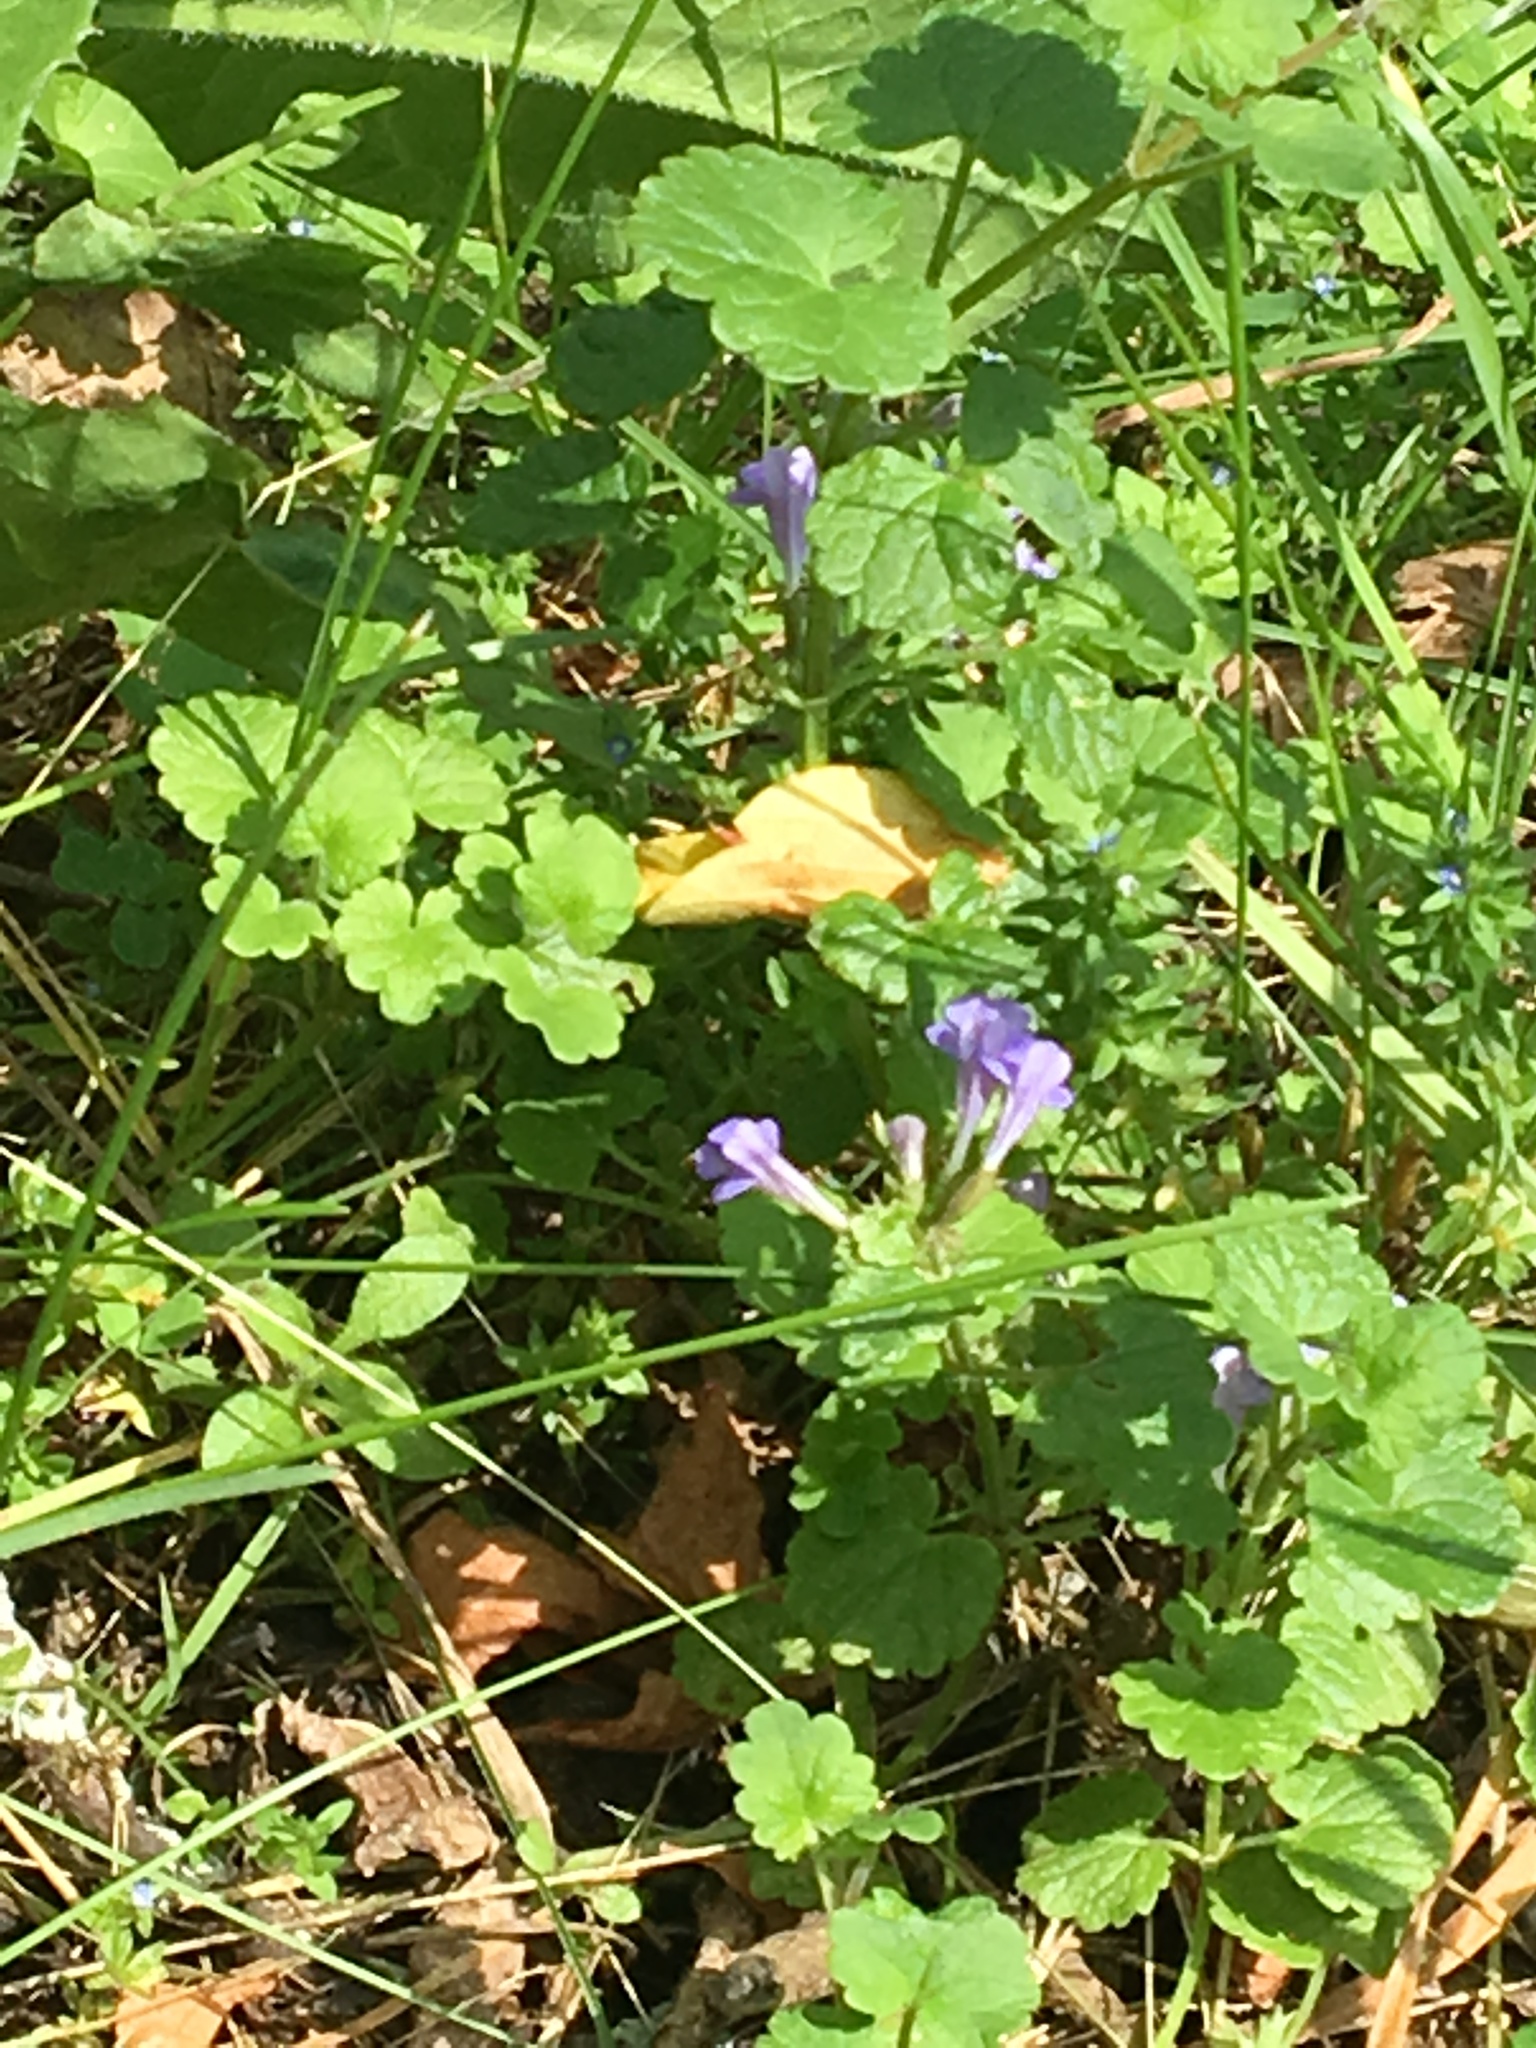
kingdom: Plantae
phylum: Tracheophyta
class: Magnoliopsida
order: Lamiales
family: Lamiaceae
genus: Glechoma
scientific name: Glechoma hederacea
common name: Ground ivy
